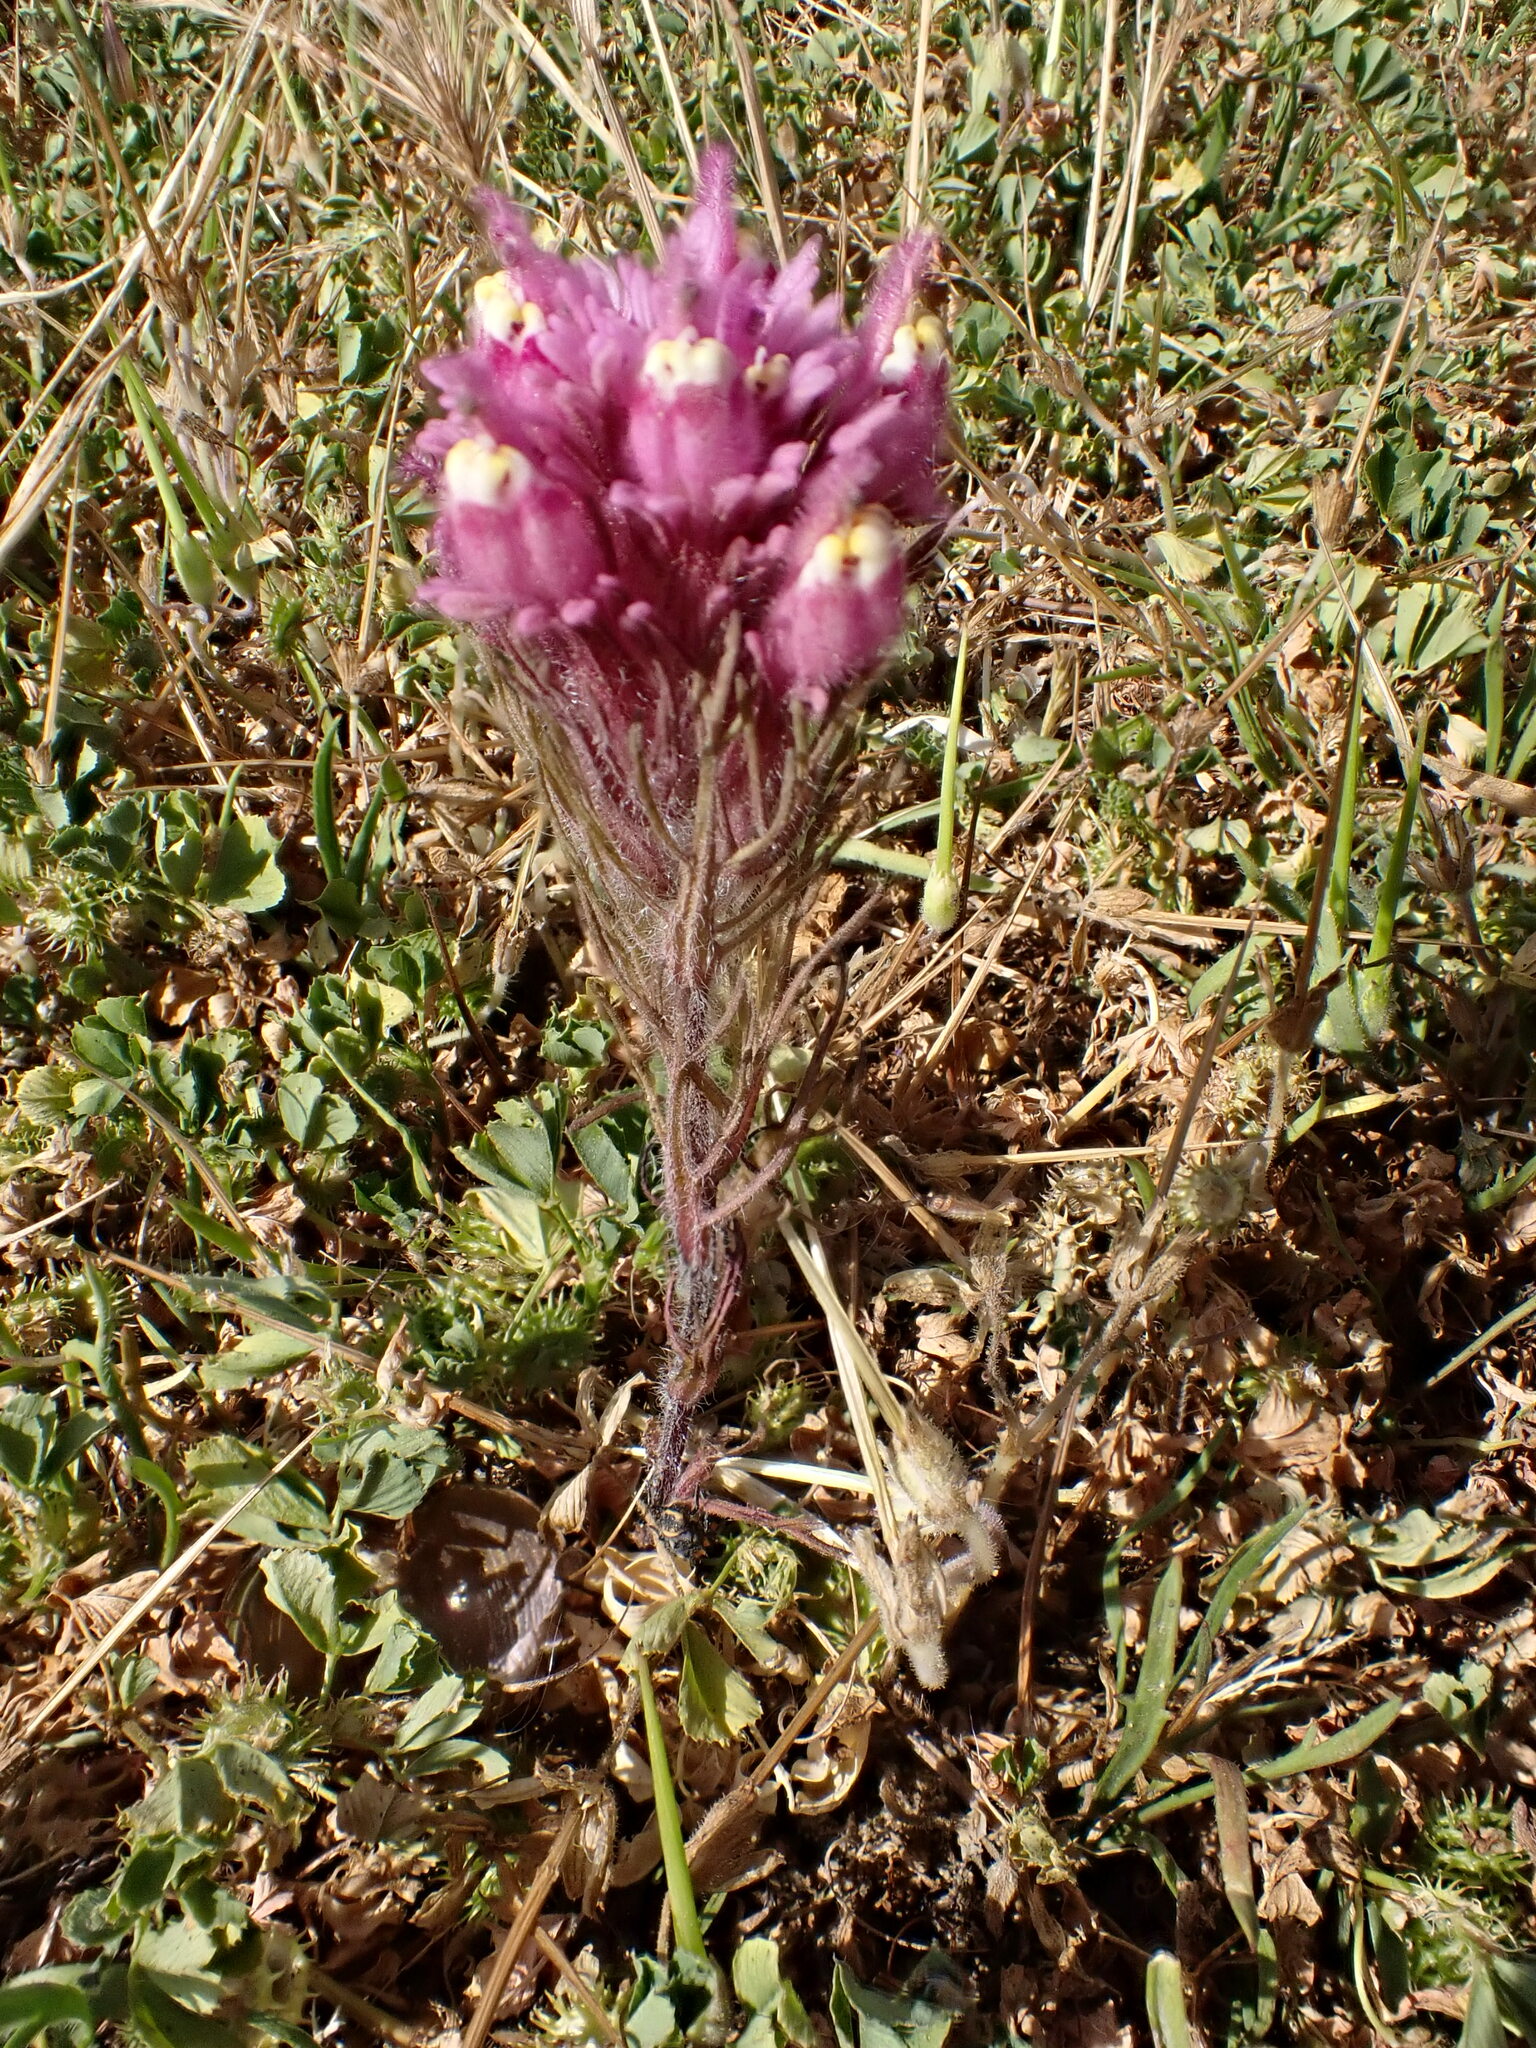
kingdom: Plantae
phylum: Tracheophyta
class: Magnoliopsida
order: Lamiales
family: Orobanchaceae
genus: Castilleja
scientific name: Castilleja exserta
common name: Purple owl-clover
